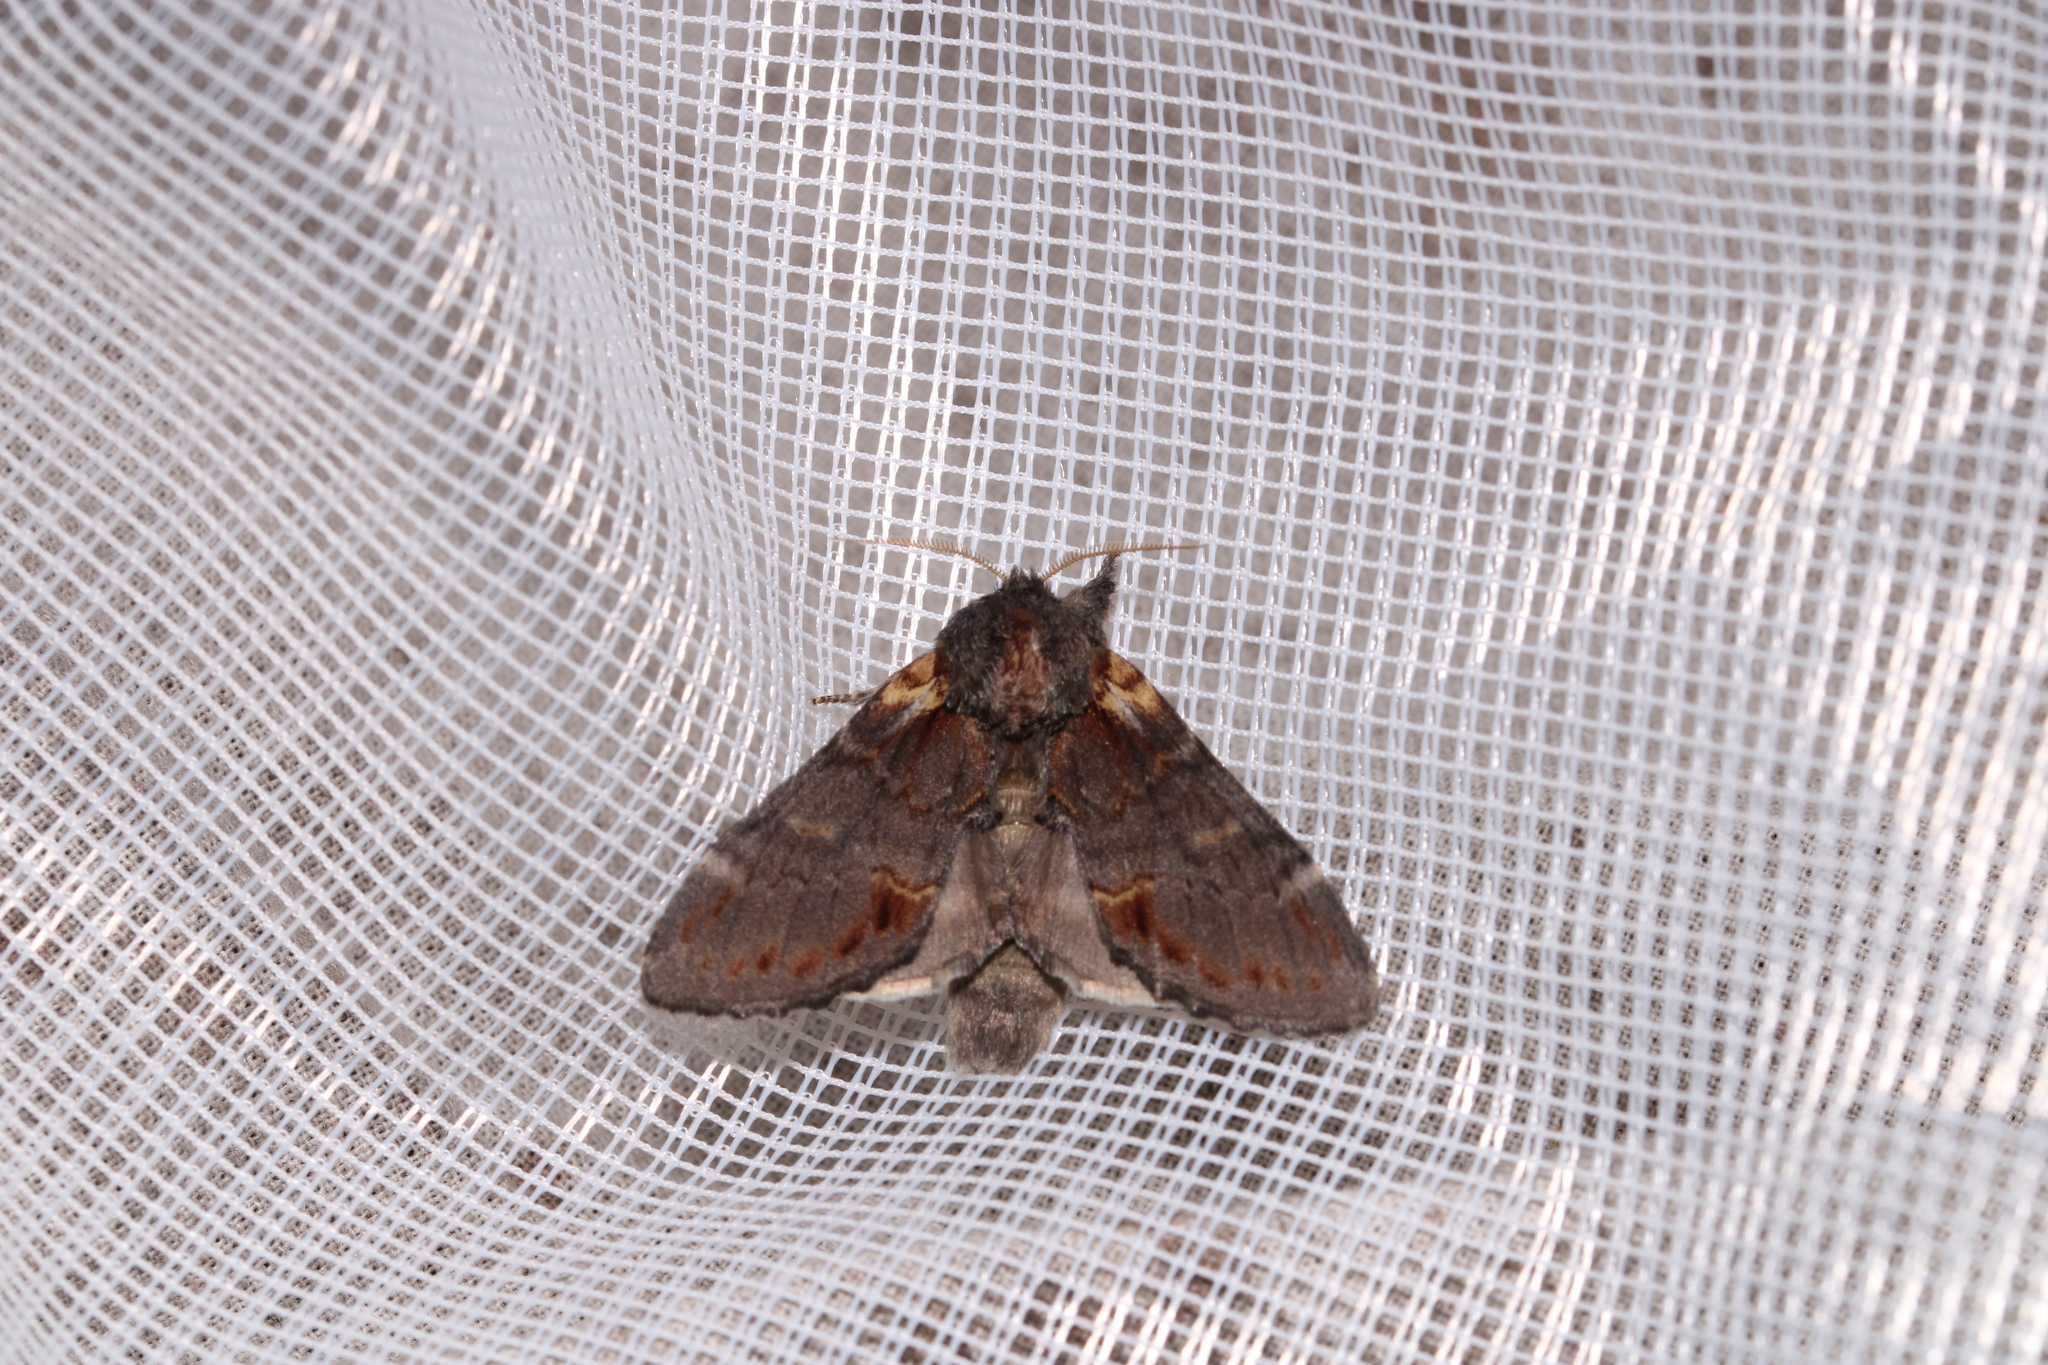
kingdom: Animalia
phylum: Arthropoda
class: Insecta
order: Lepidoptera
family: Notodontidae
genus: Notodonta
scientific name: Notodonta dromedarius
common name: Iron prominent
